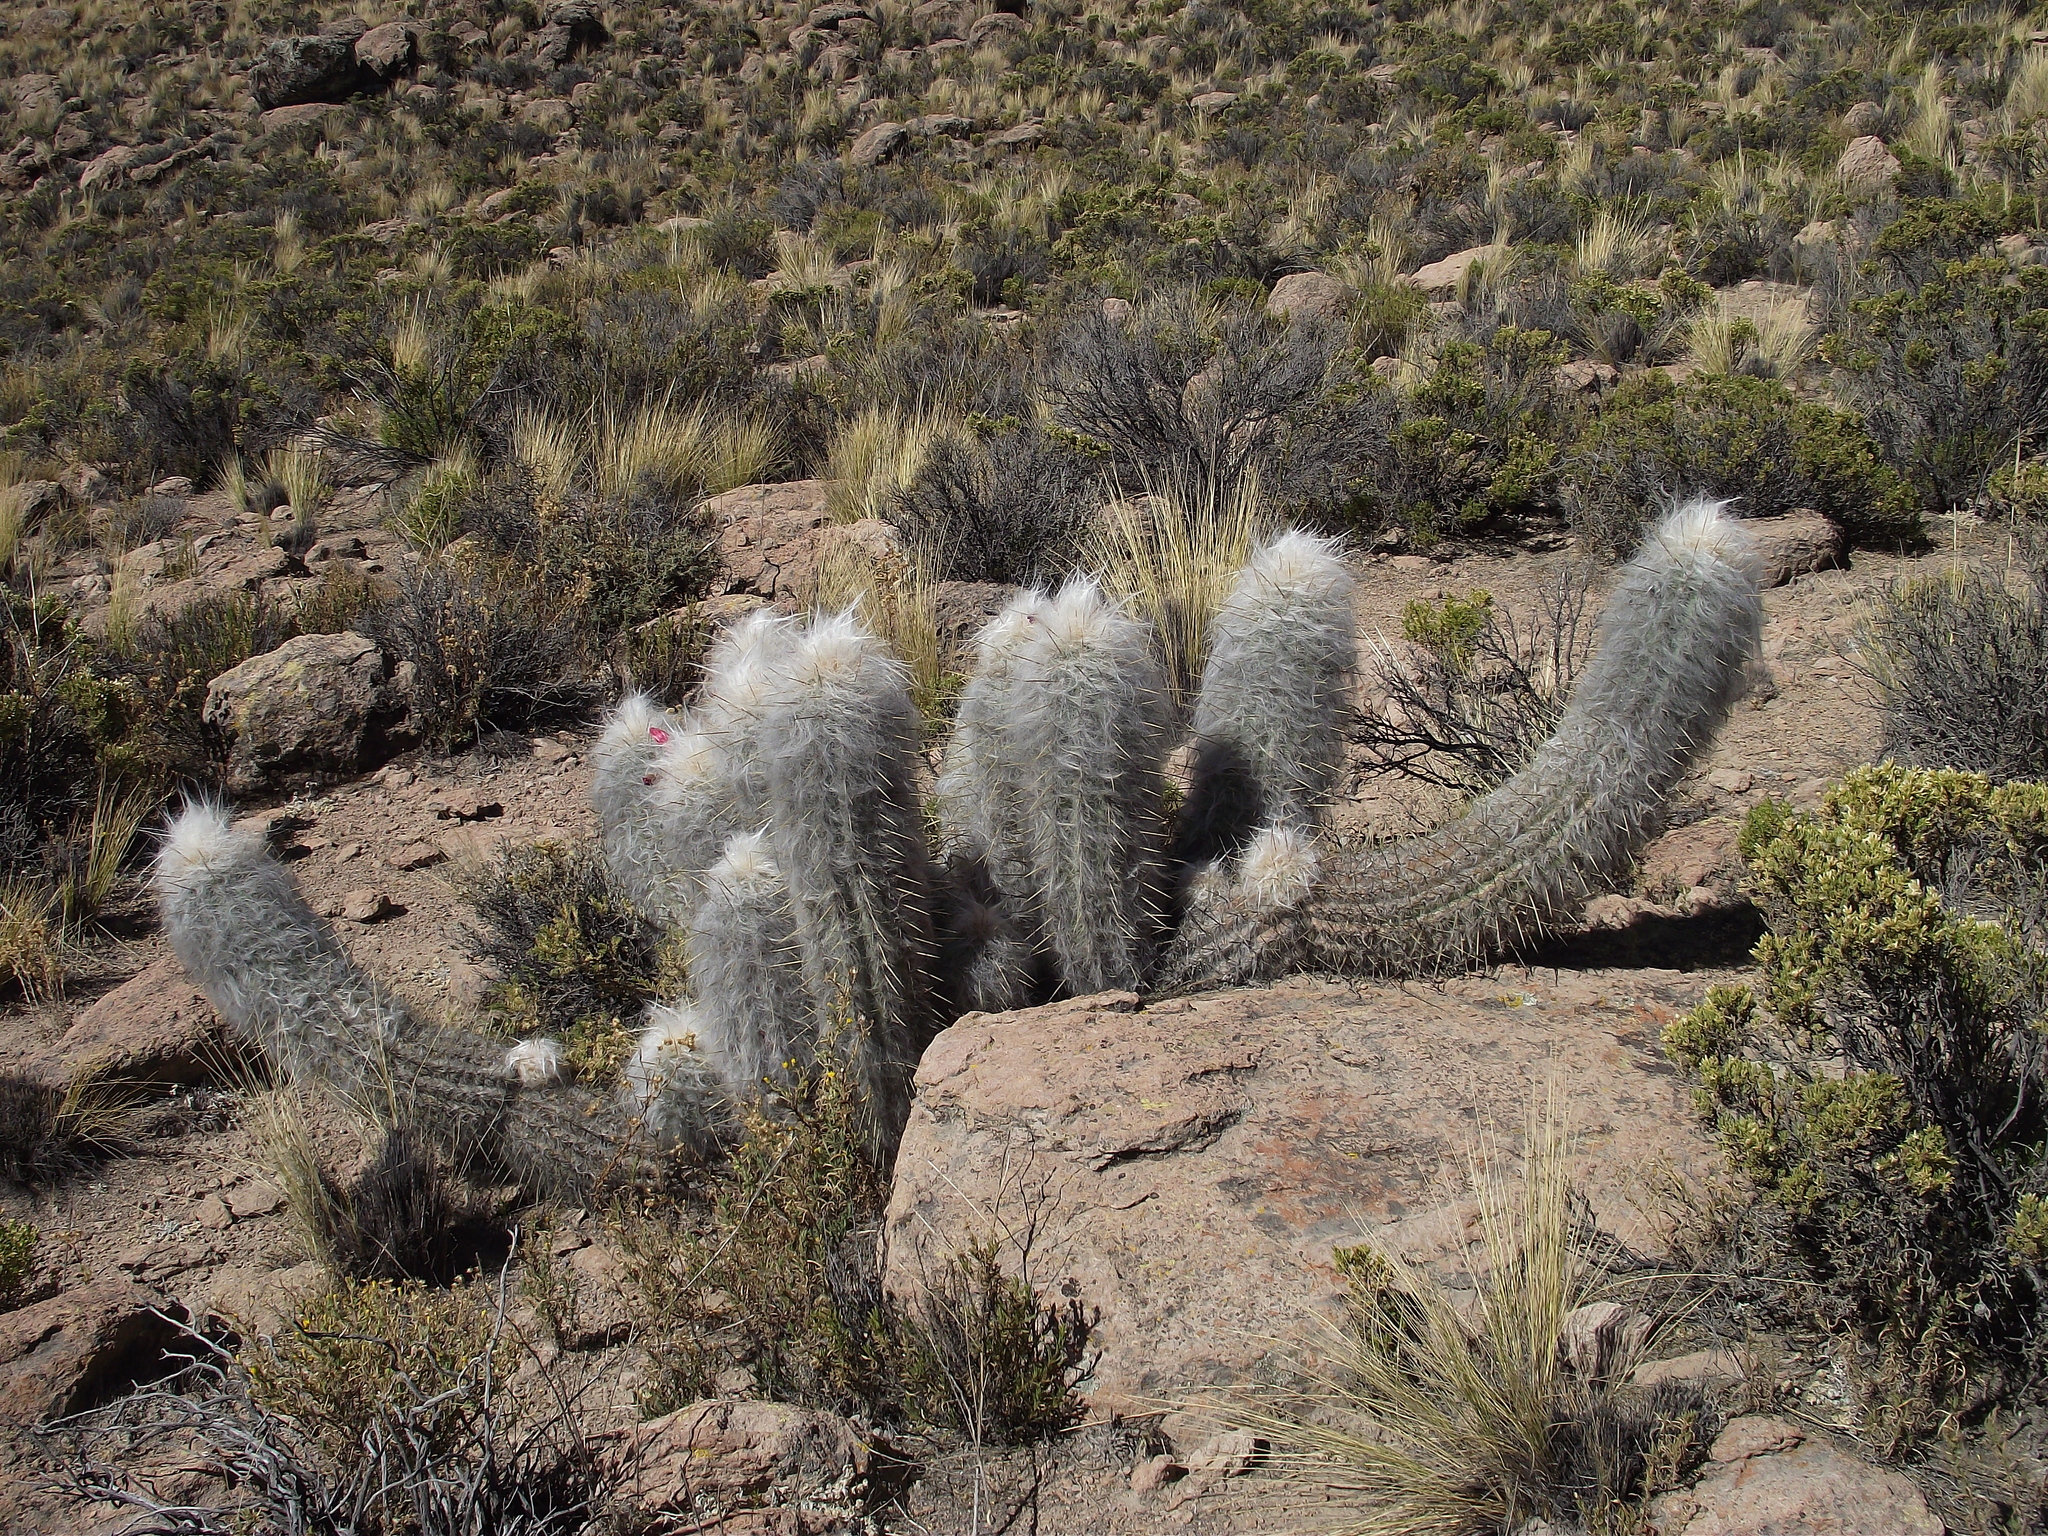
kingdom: Plantae
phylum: Tracheophyta
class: Magnoliopsida
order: Caryophyllales
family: Cactaceae
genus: Oreocereus
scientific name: Oreocereus leucotrichus
